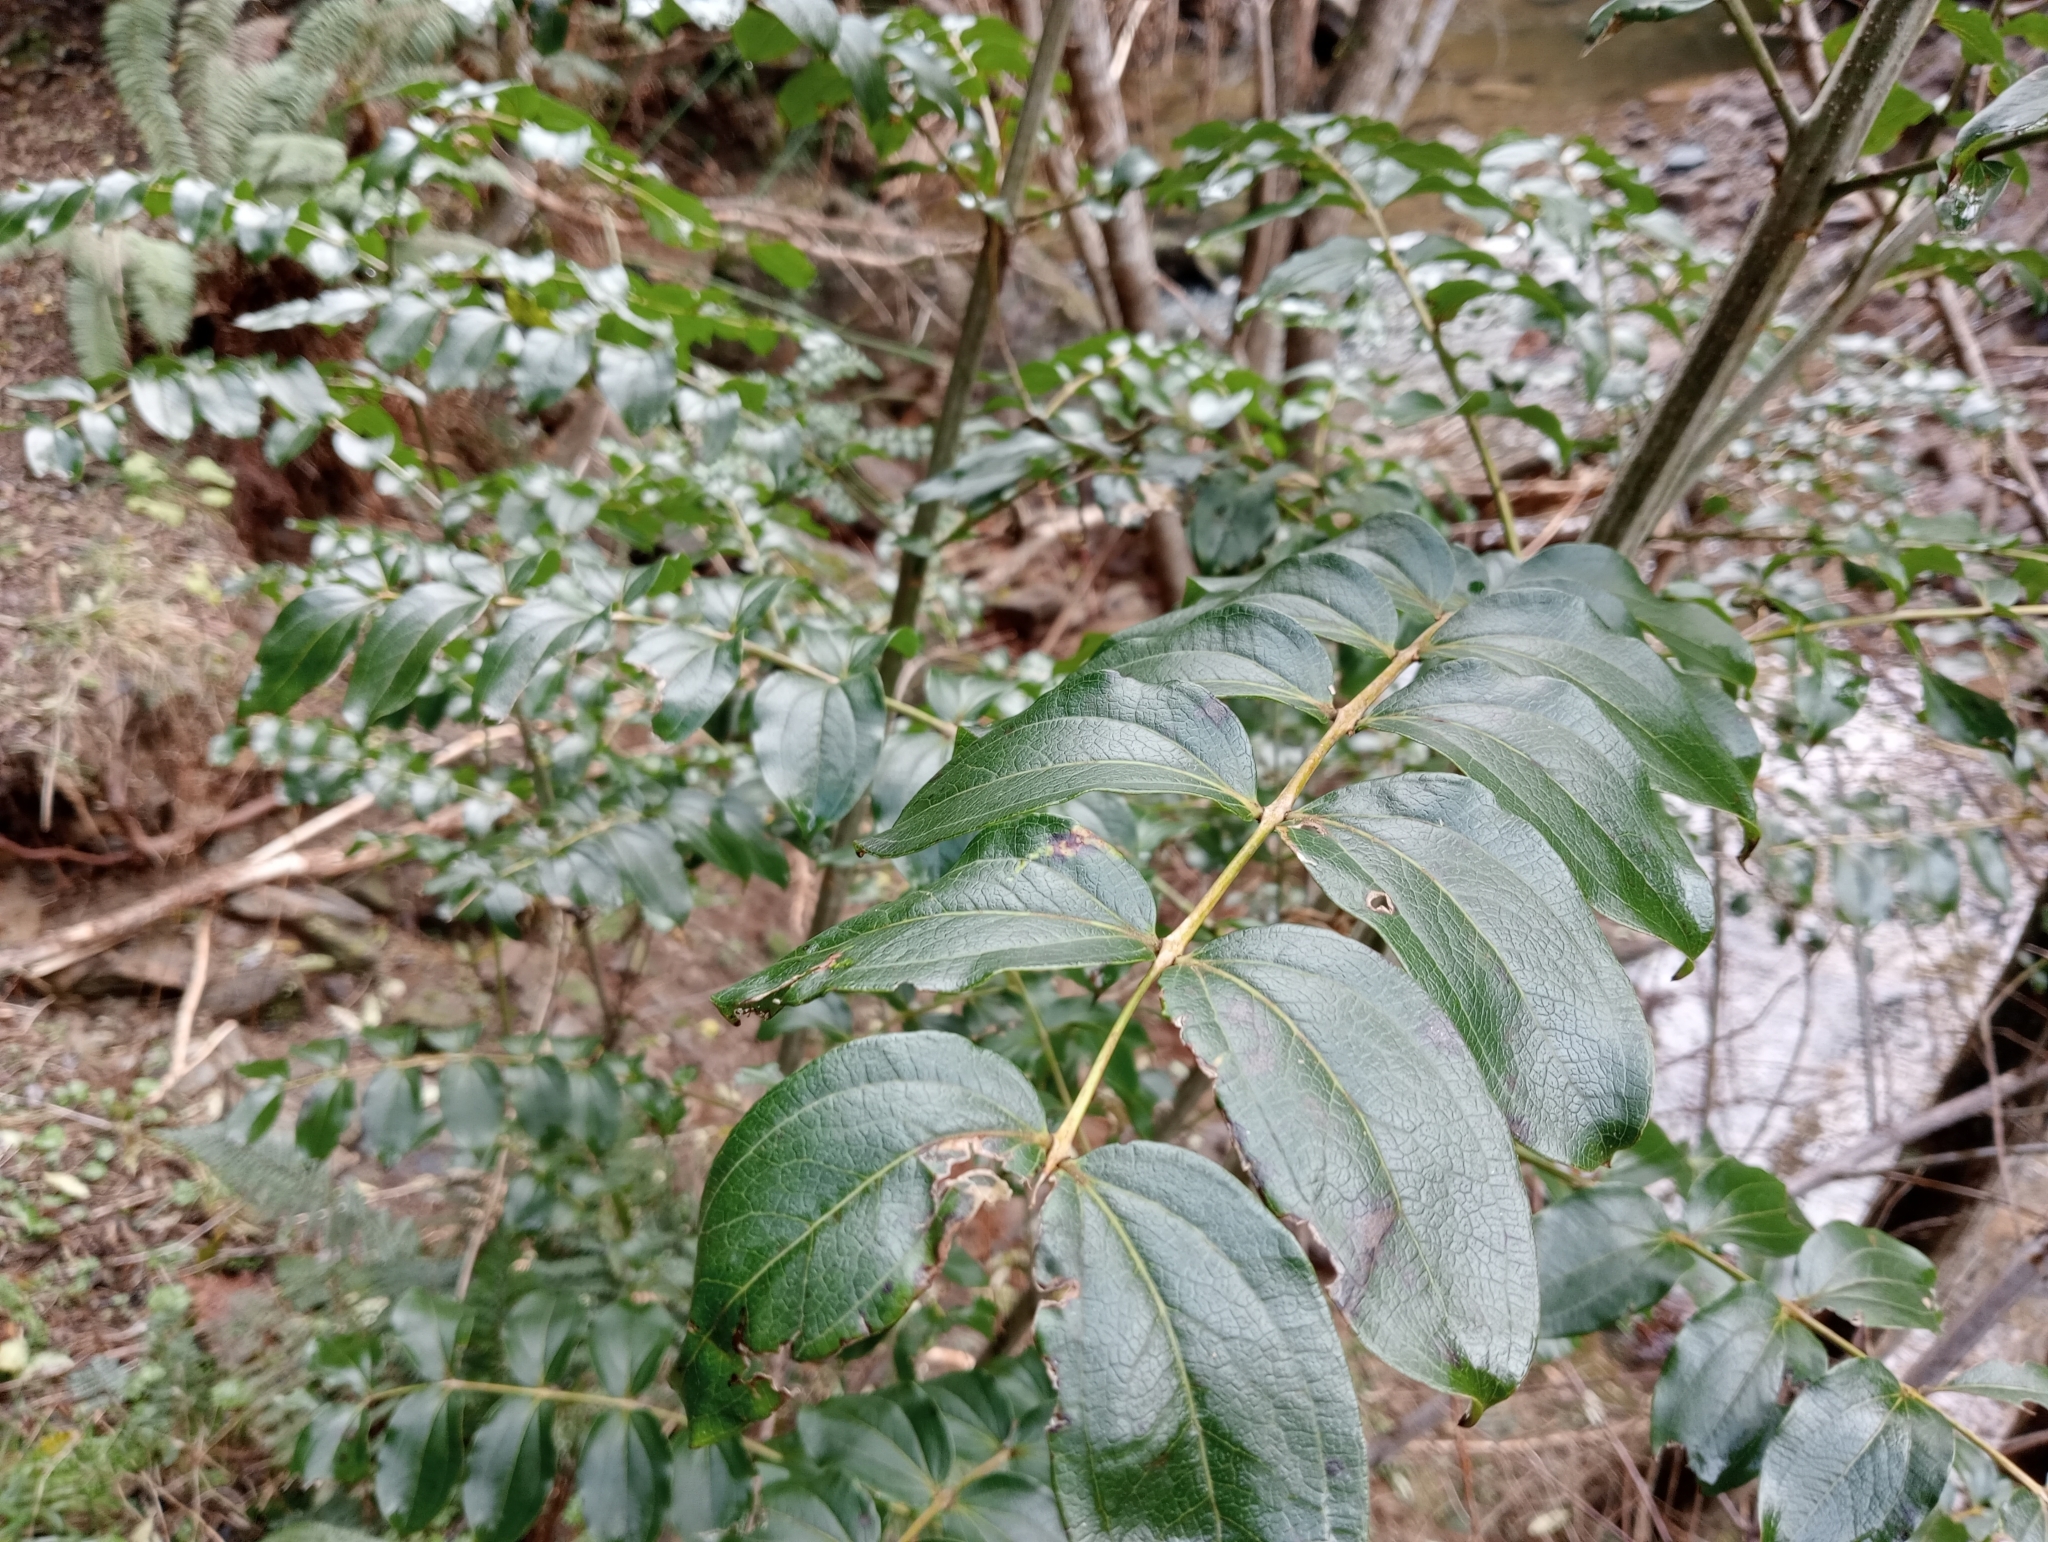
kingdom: Plantae
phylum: Tracheophyta
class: Magnoliopsida
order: Cucurbitales
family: Coriariaceae
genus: Coriaria
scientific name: Coriaria arborea
